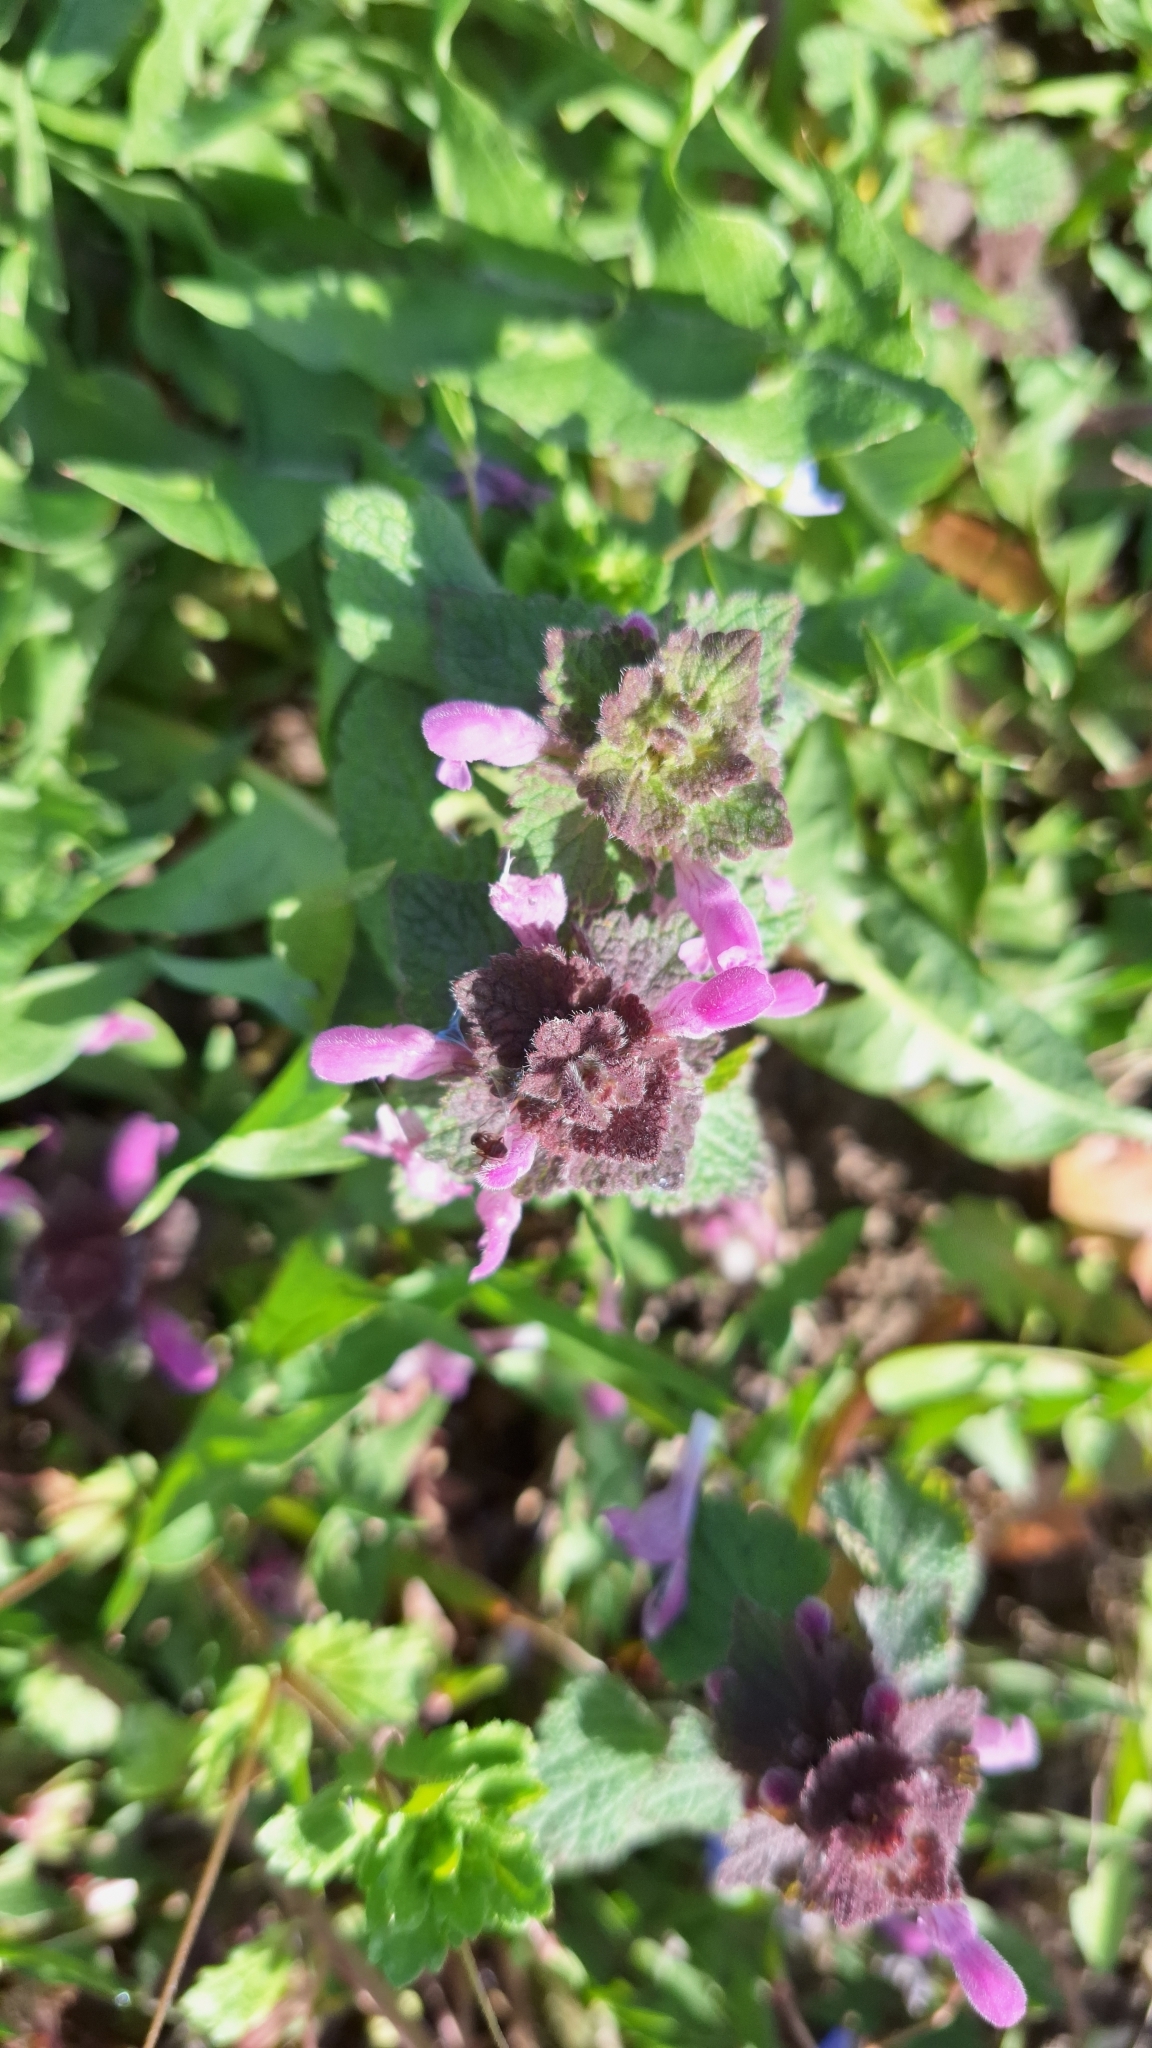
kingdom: Plantae
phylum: Tracheophyta
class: Magnoliopsida
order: Lamiales
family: Lamiaceae
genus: Lamium
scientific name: Lamium purpureum
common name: Red dead-nettle
